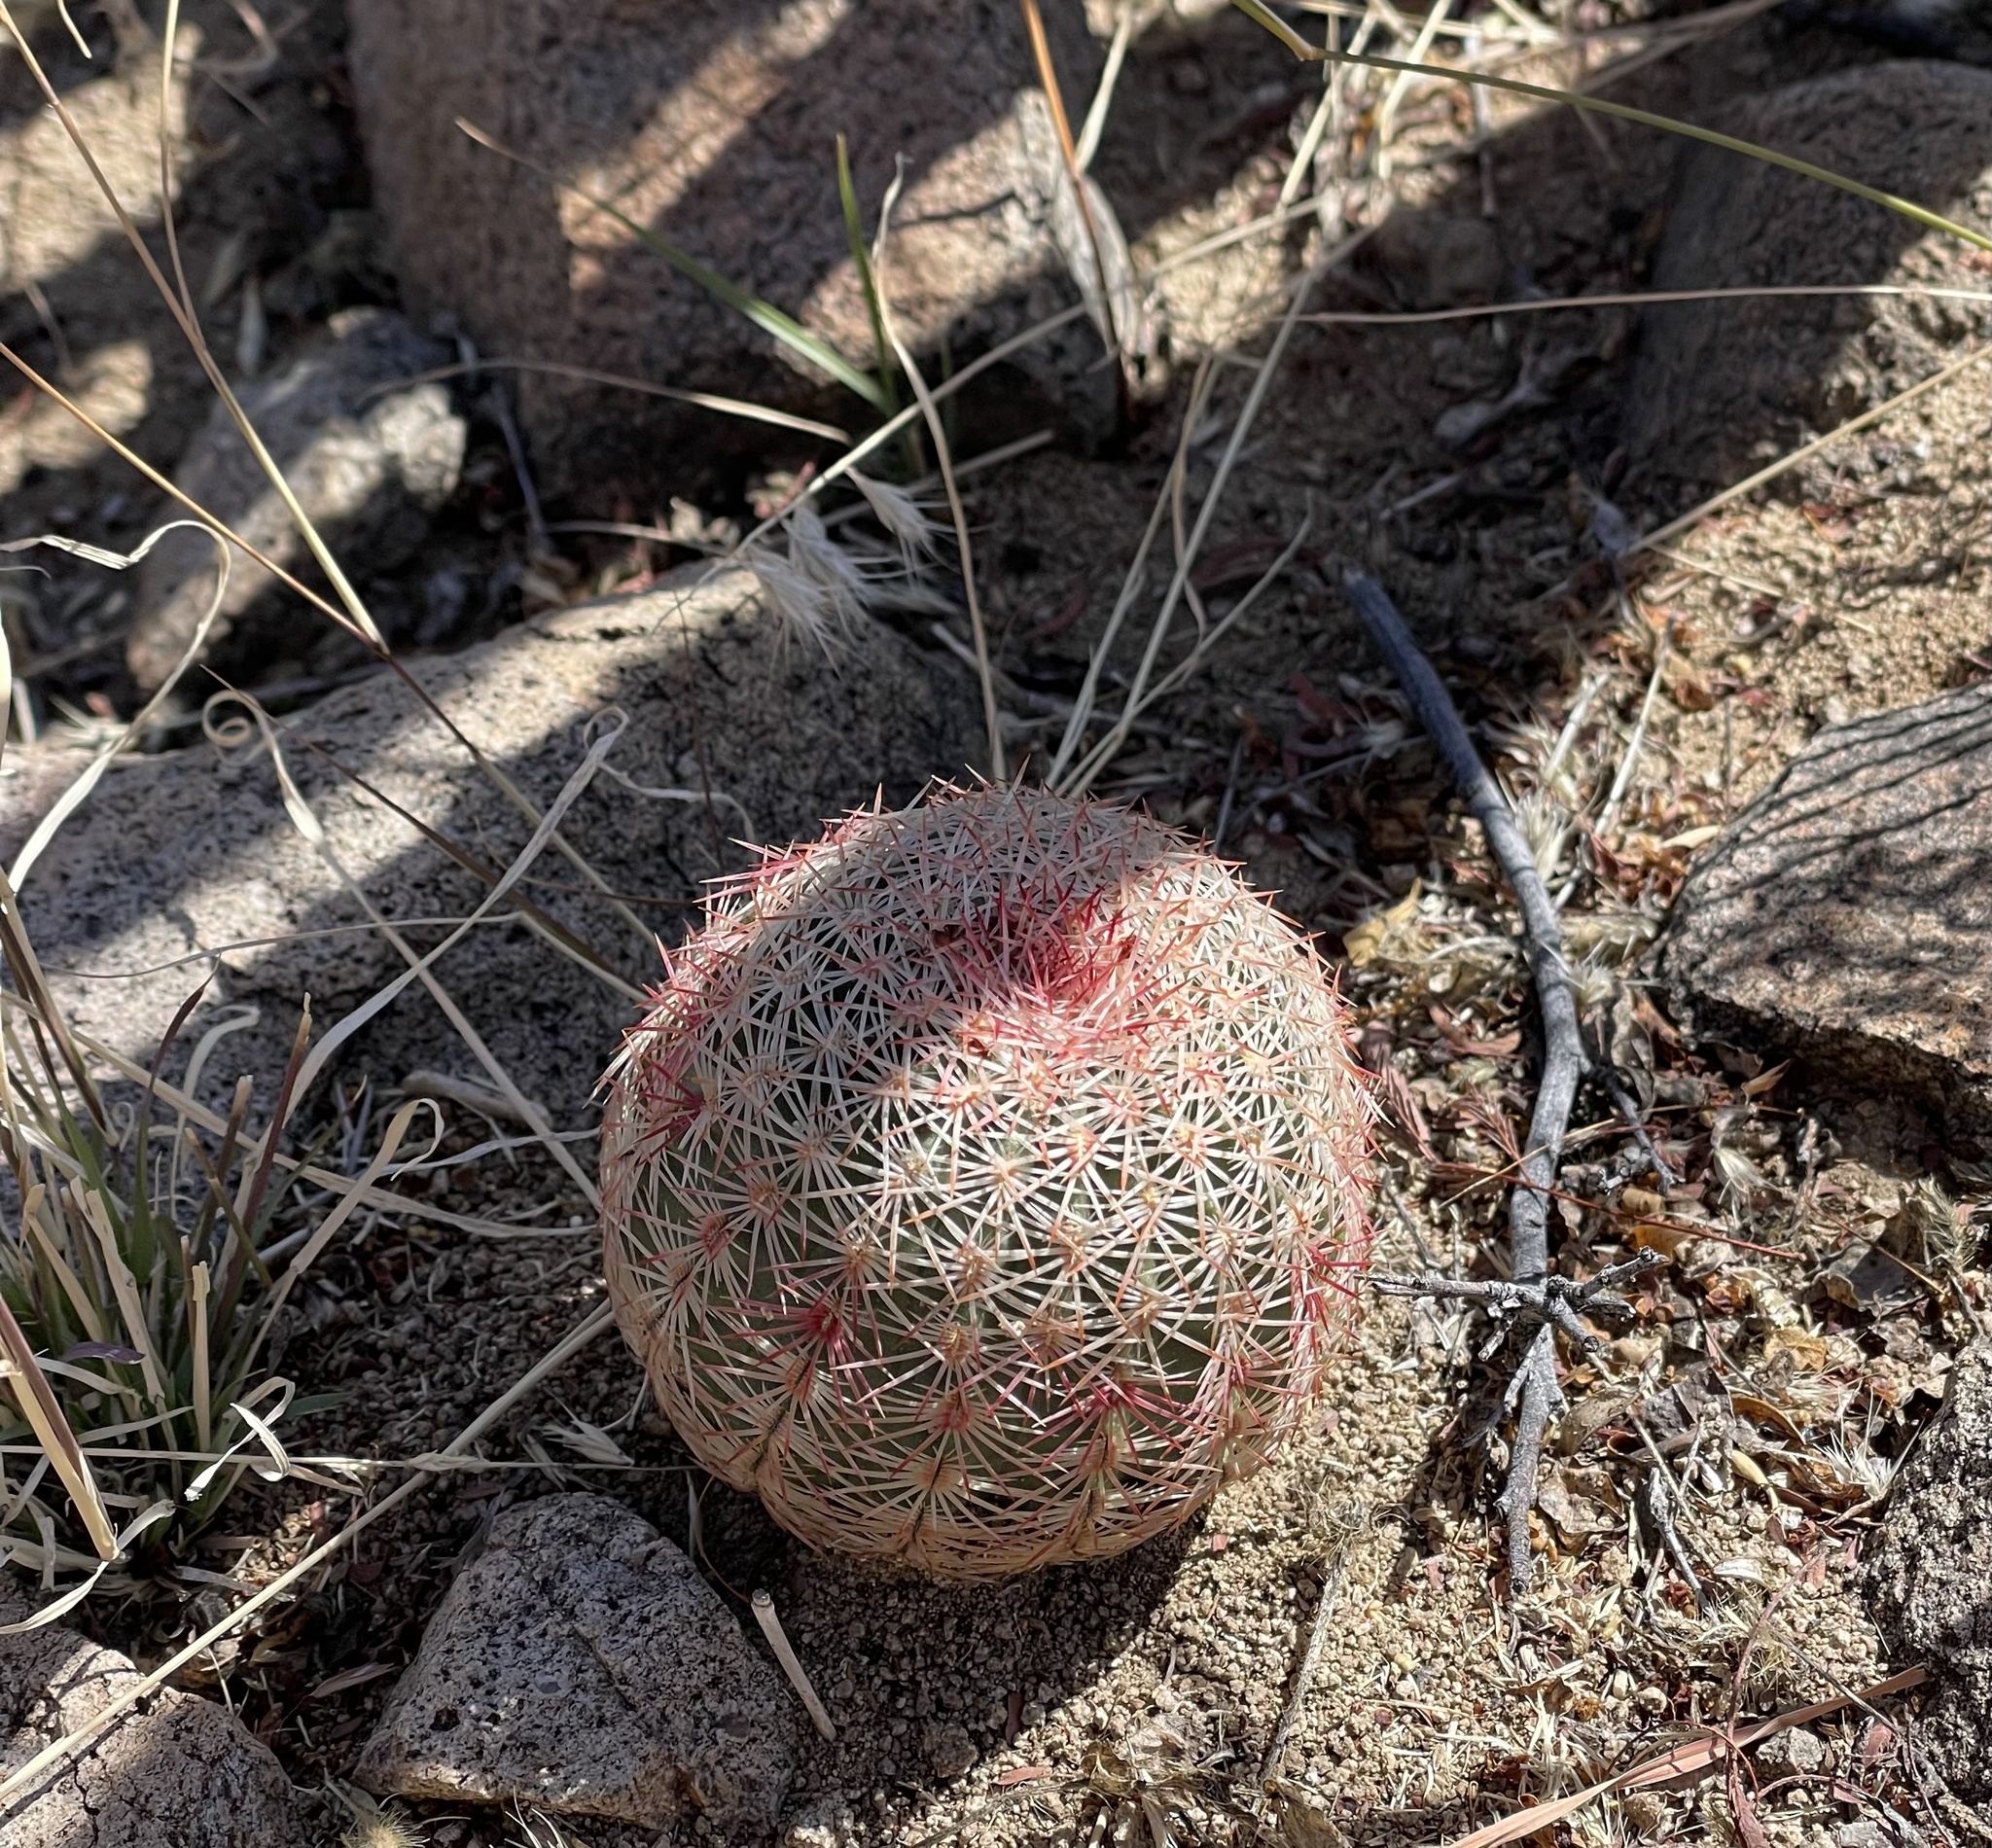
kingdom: Plantae
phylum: Tracheophyta
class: Magnoliopsida
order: Caryophyllales
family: Cactaceae
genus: Echinocereus
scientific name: Echinocereus rigidissimus
